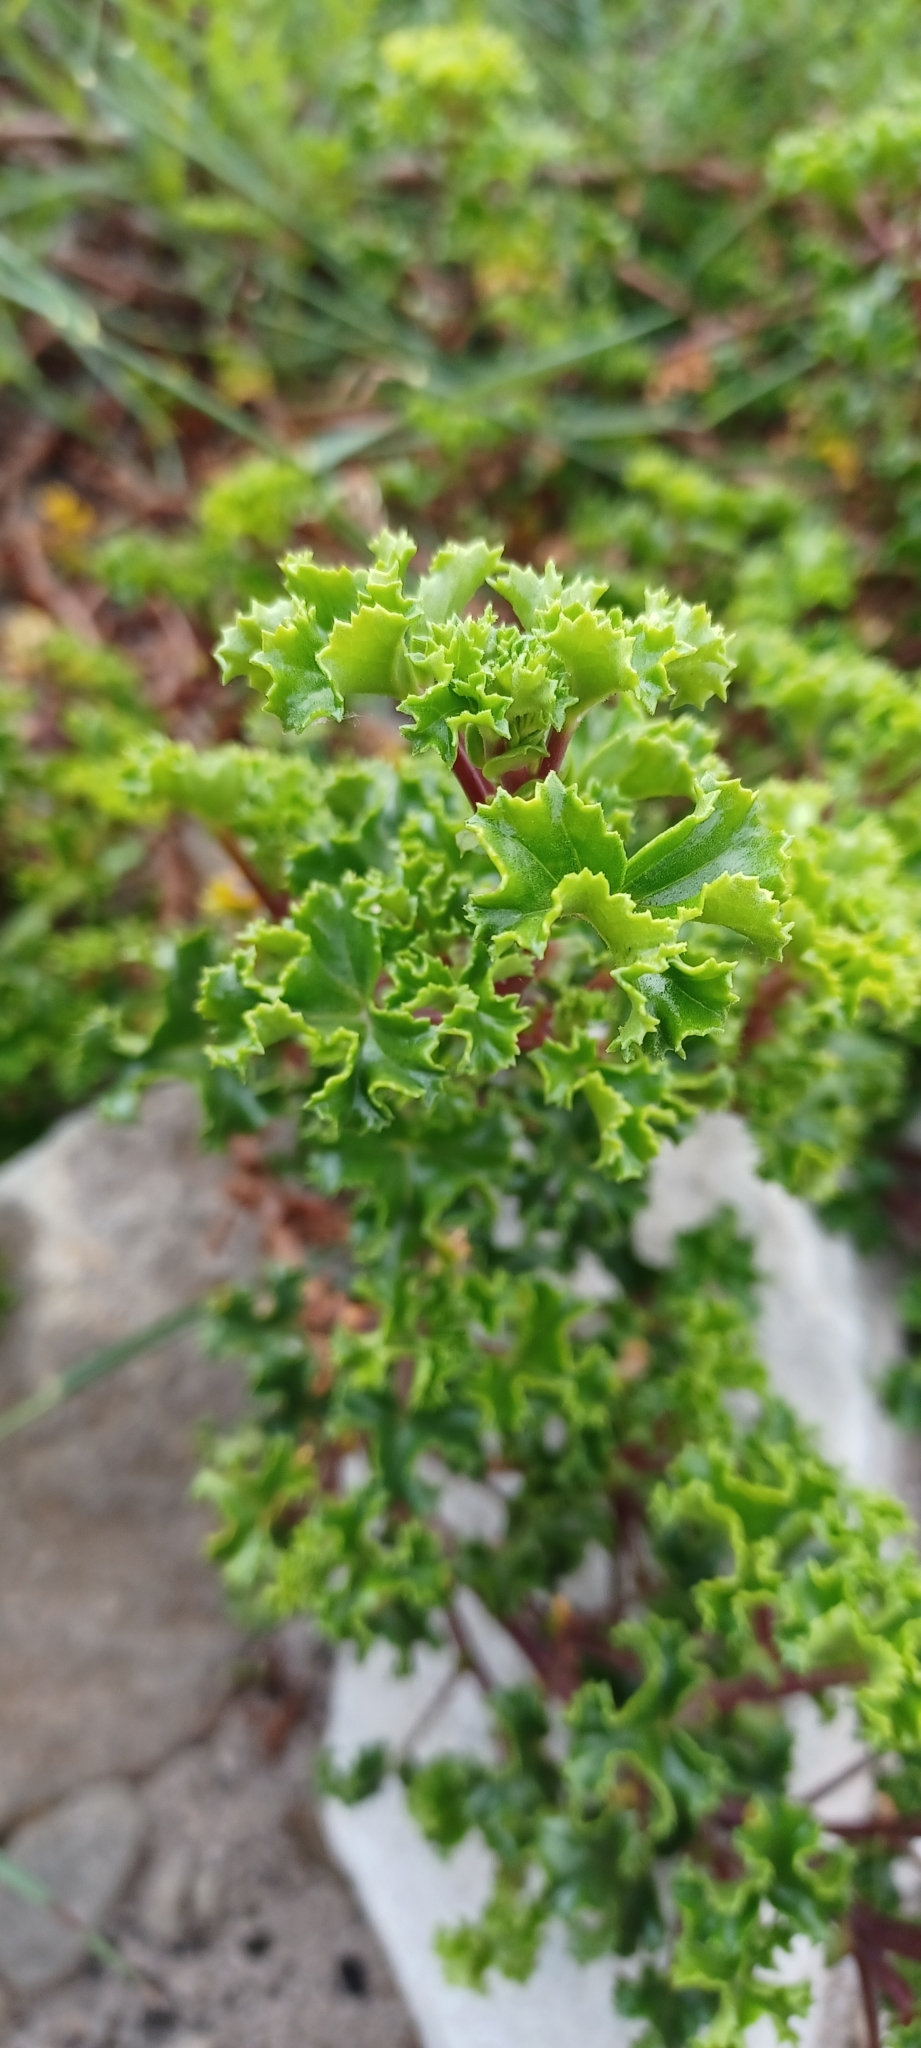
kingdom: Plantae
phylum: Tracheophyta
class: Magnoliopsida
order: Geraniales
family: Geraniaceae
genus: Pelargonium
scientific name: Pelargonium englerianum
